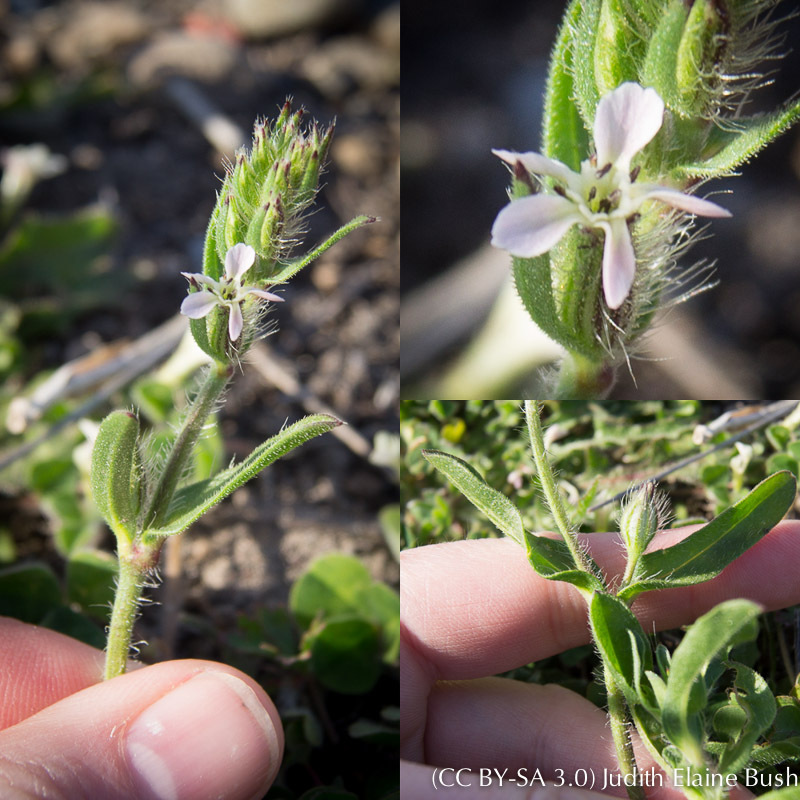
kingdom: Plantae
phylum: Tracheophyta
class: Magnoliopsida
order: Caryophyllales
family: Caryophyllaceae
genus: Silene
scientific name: Silene gallica
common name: Small-flowered catchfly
